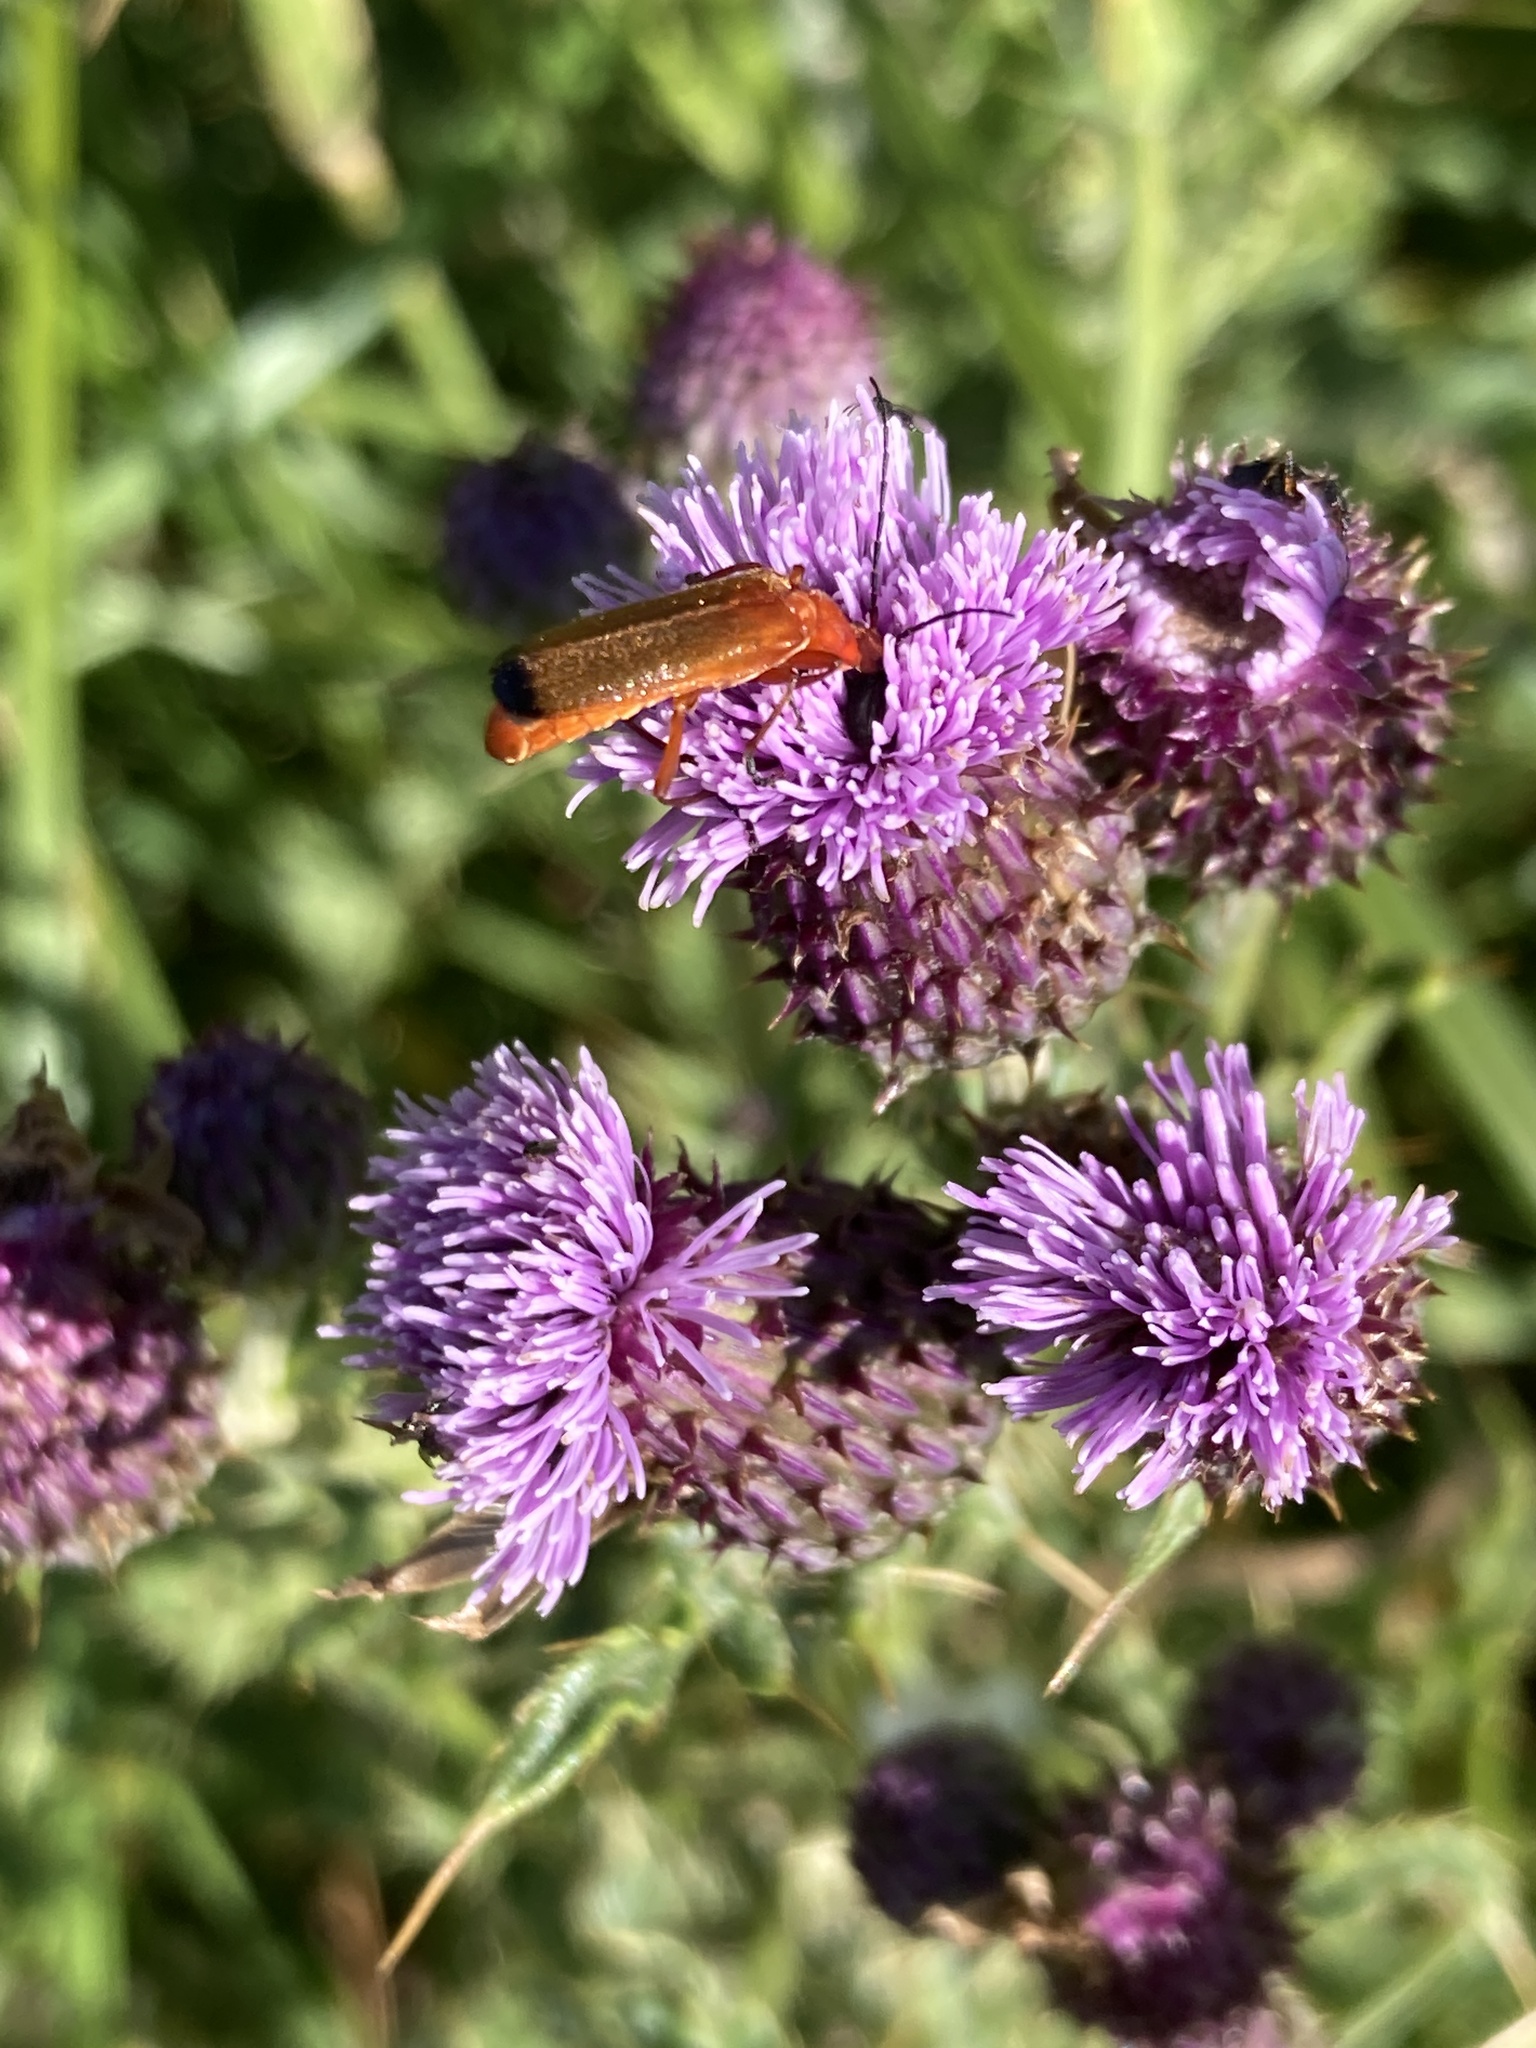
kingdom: Animalia
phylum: Arthropoda
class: Insecta
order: Coleoptera
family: Cantharidae
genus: Rhagonycha
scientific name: Rhagonycha fulva
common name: Common red soldier beetle
